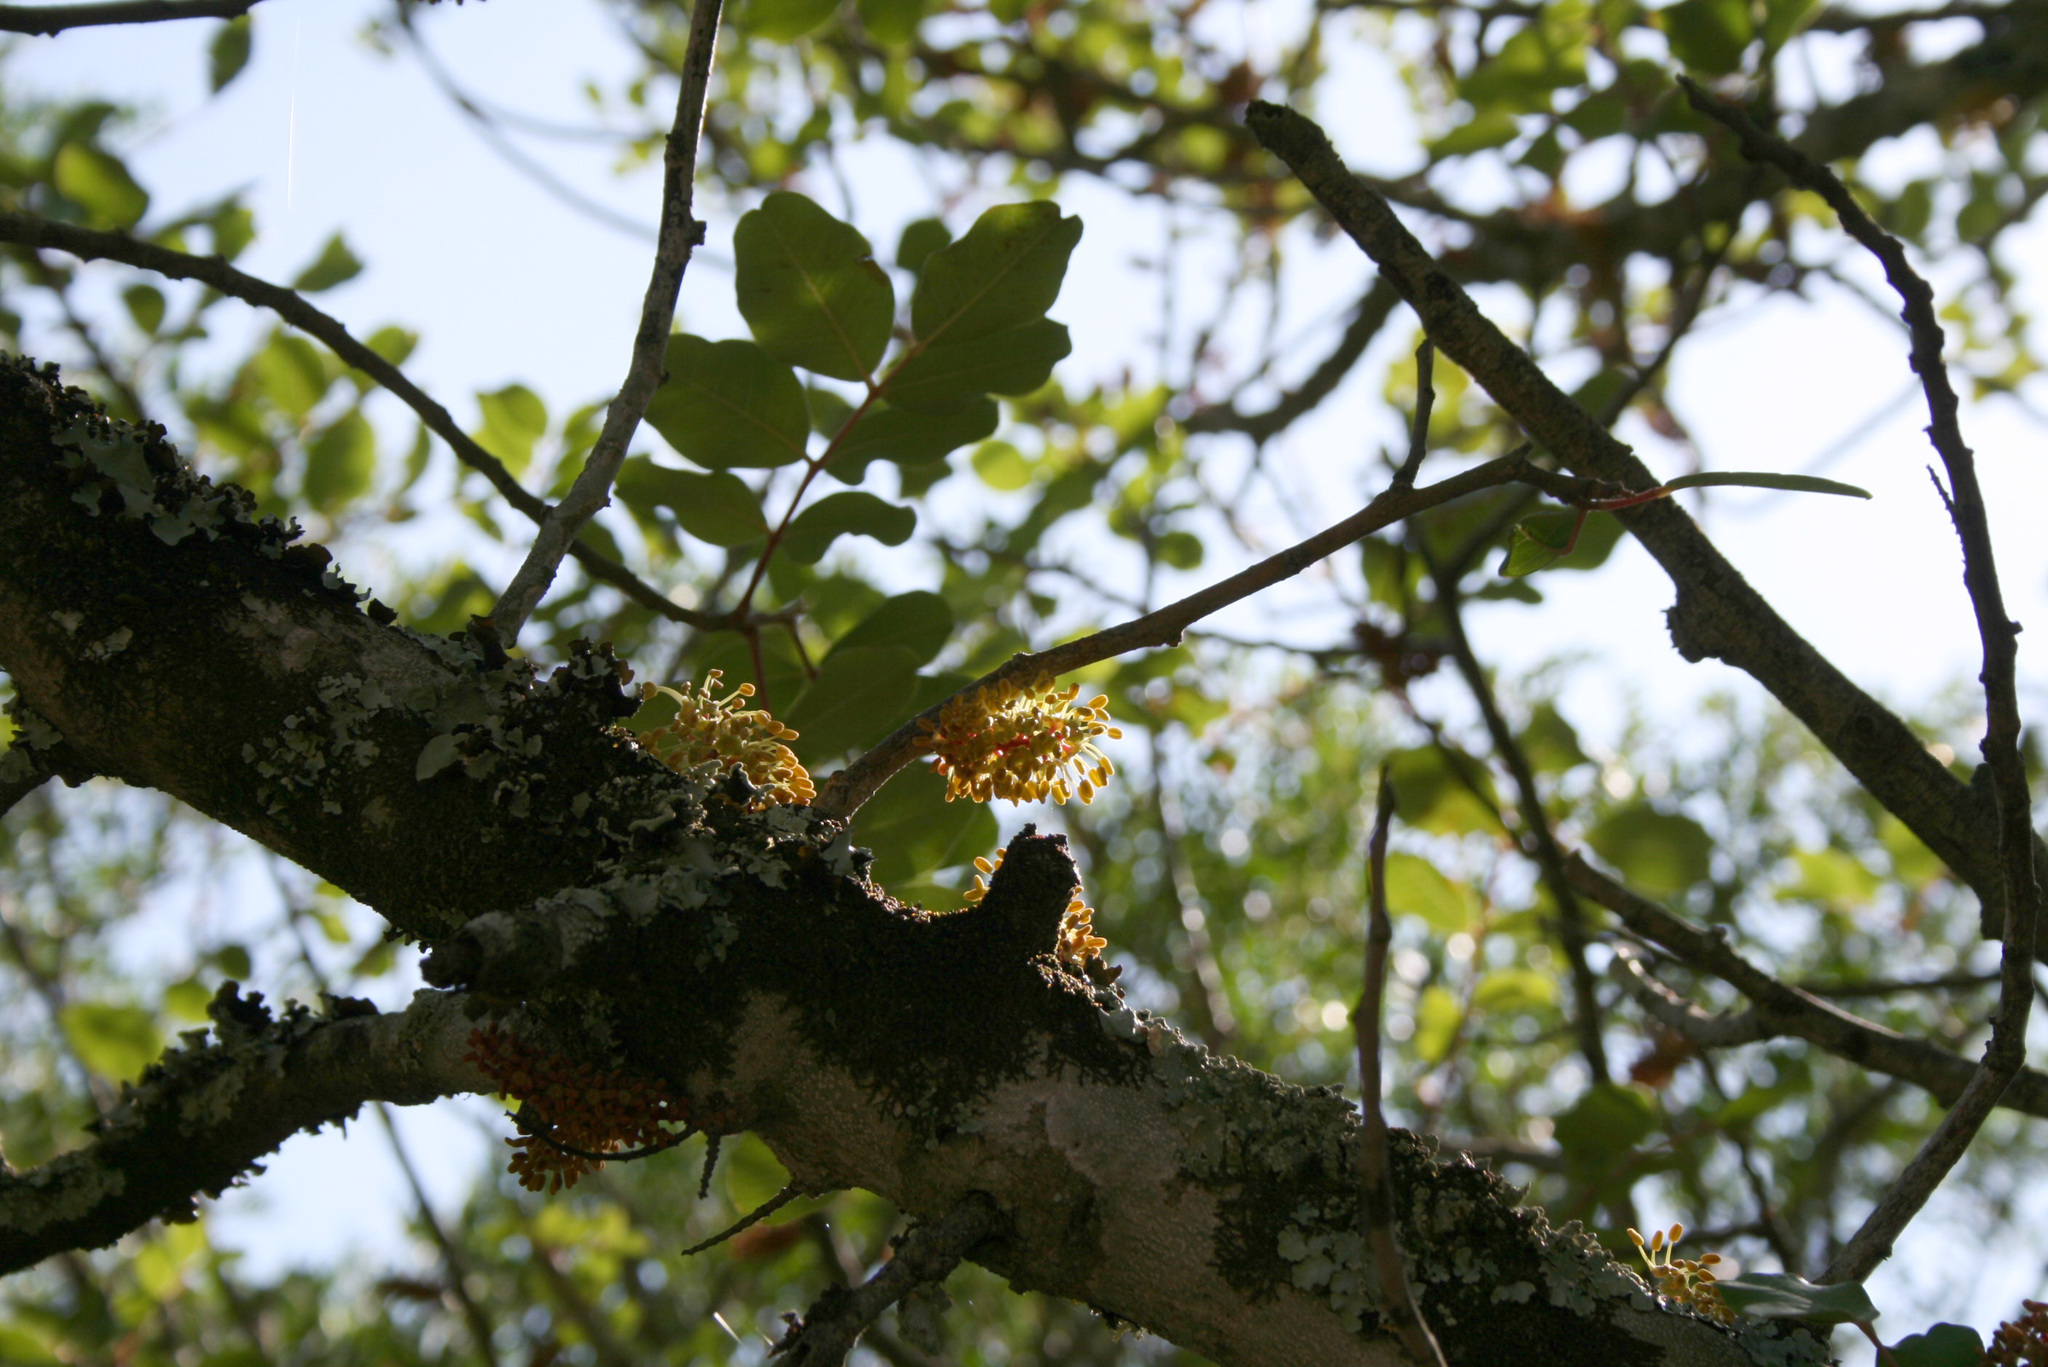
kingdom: Plantae
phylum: Tracheophyta
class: Magnoliopsida
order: Fabales
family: Fabaceae
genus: Ceratonia
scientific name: Ceratonia siliqua
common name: Carob
